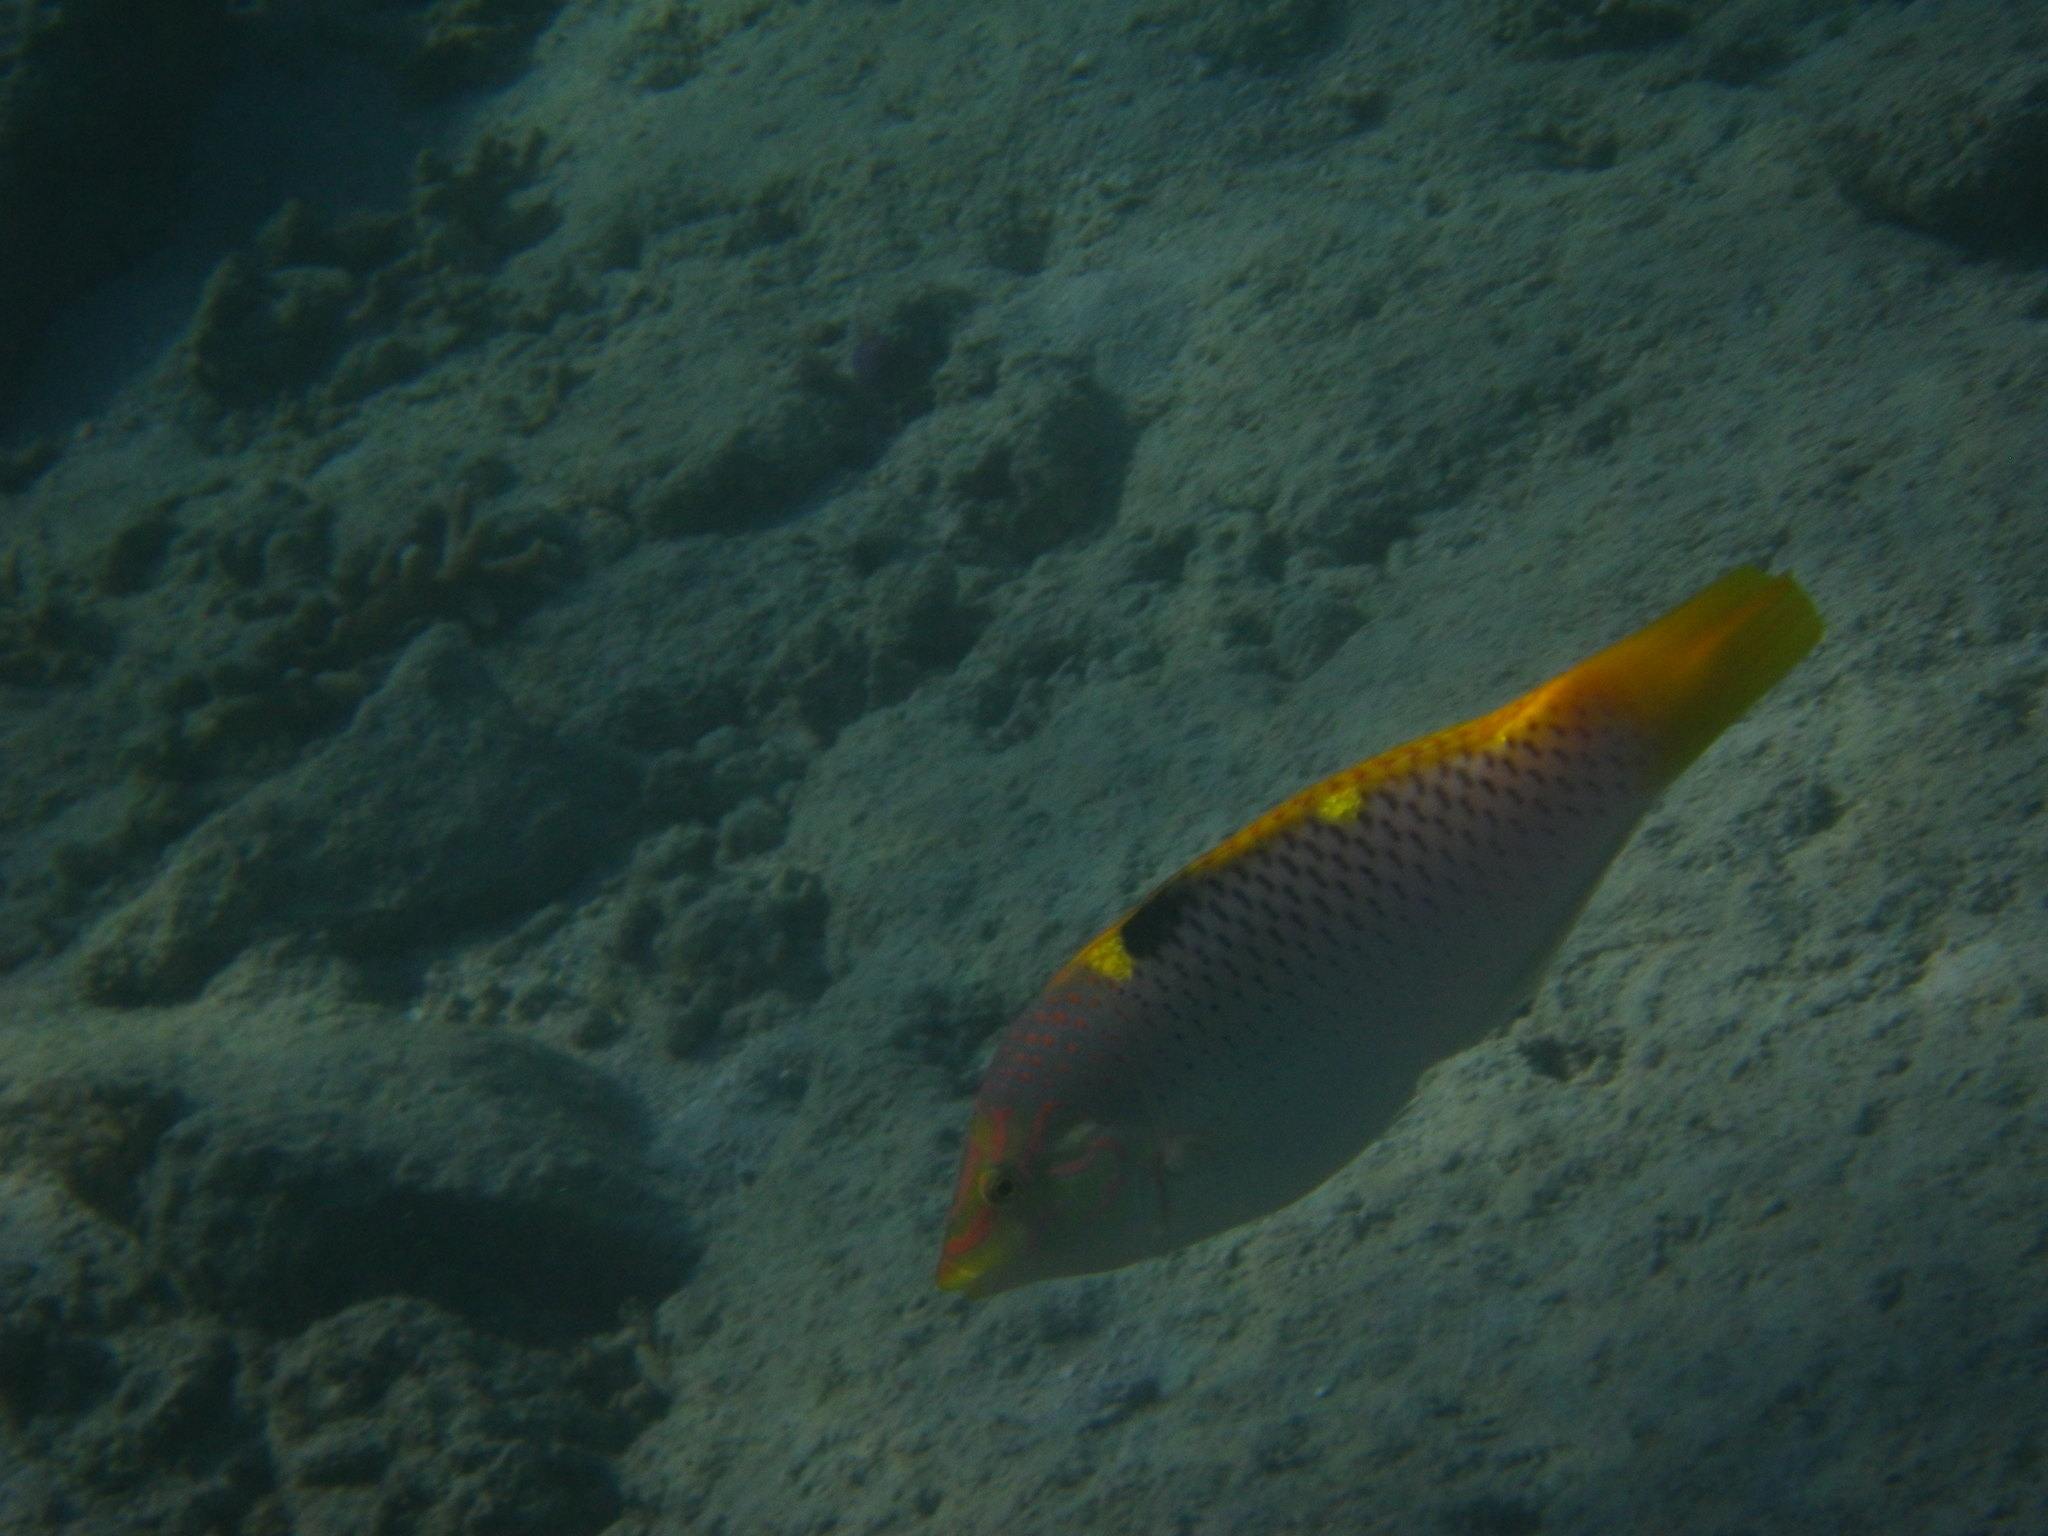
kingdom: Animalia
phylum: Chordata
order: Perciformes
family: Labridae
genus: Halichoeres
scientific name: Halichoeres hortulanus
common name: Checkerboard wrasse
